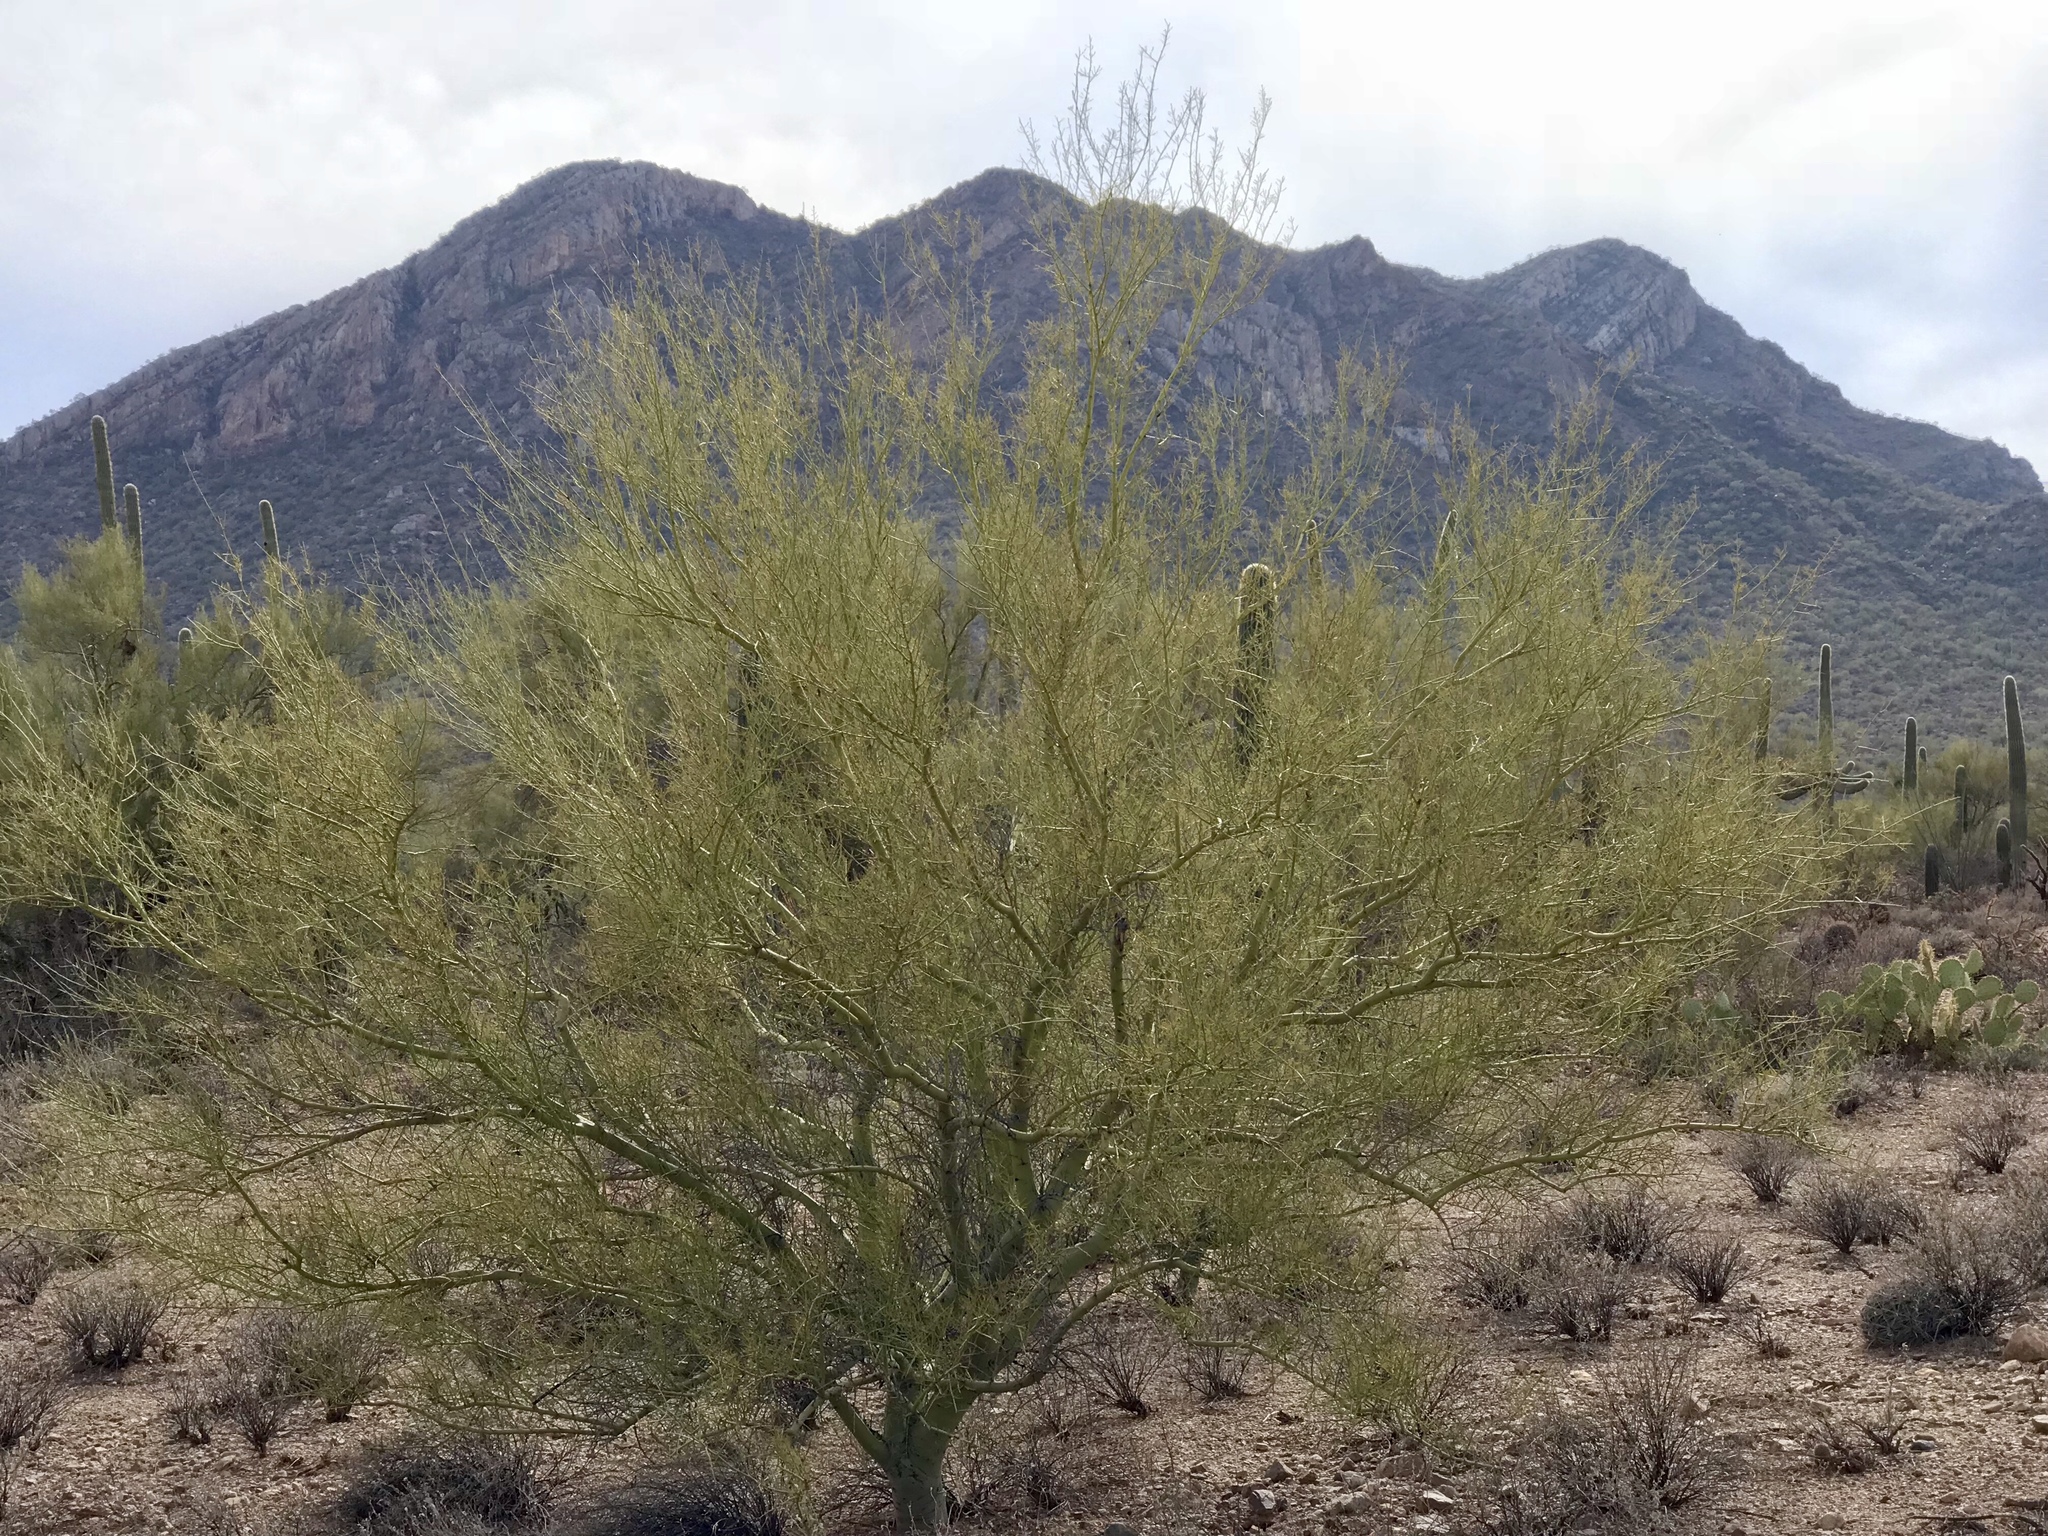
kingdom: Plantae
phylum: Tracheophyta
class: Magnoliopsida
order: Fabales
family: Fabaceae
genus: Parkinsonia
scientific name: Parkinsonia microphylla
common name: Yellow paloverde
